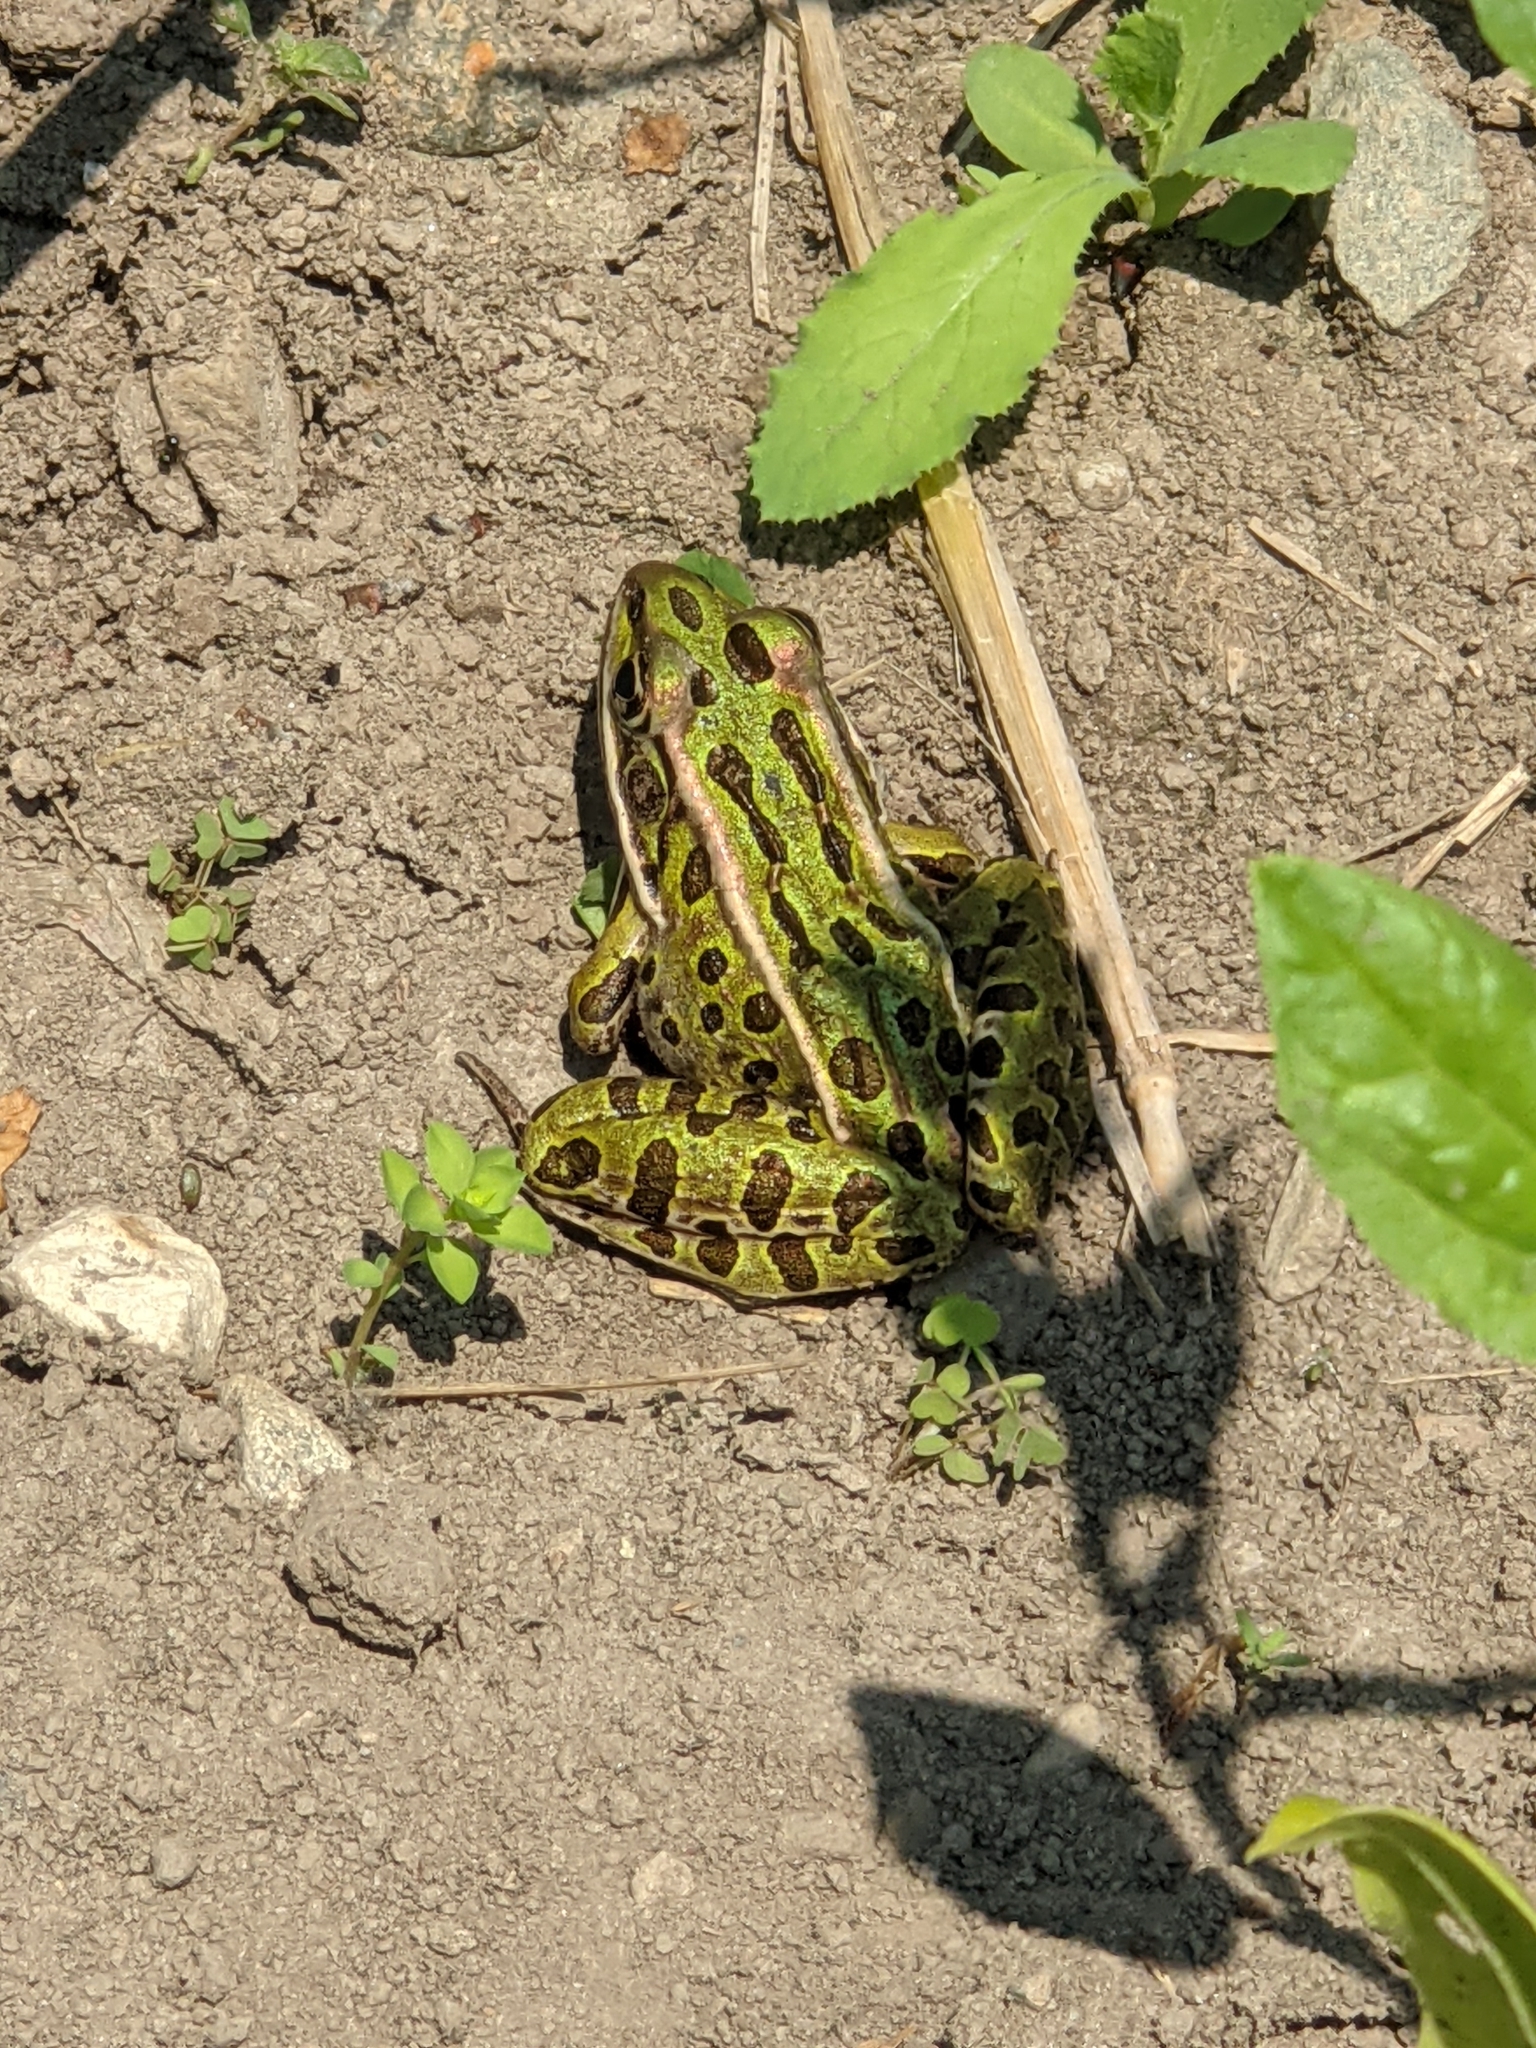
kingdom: Animalia
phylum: Chordata
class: Amphibia
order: Anura
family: Ranidae
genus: Lithobates
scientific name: Lithobates pipiens
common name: Northern leopard frog
